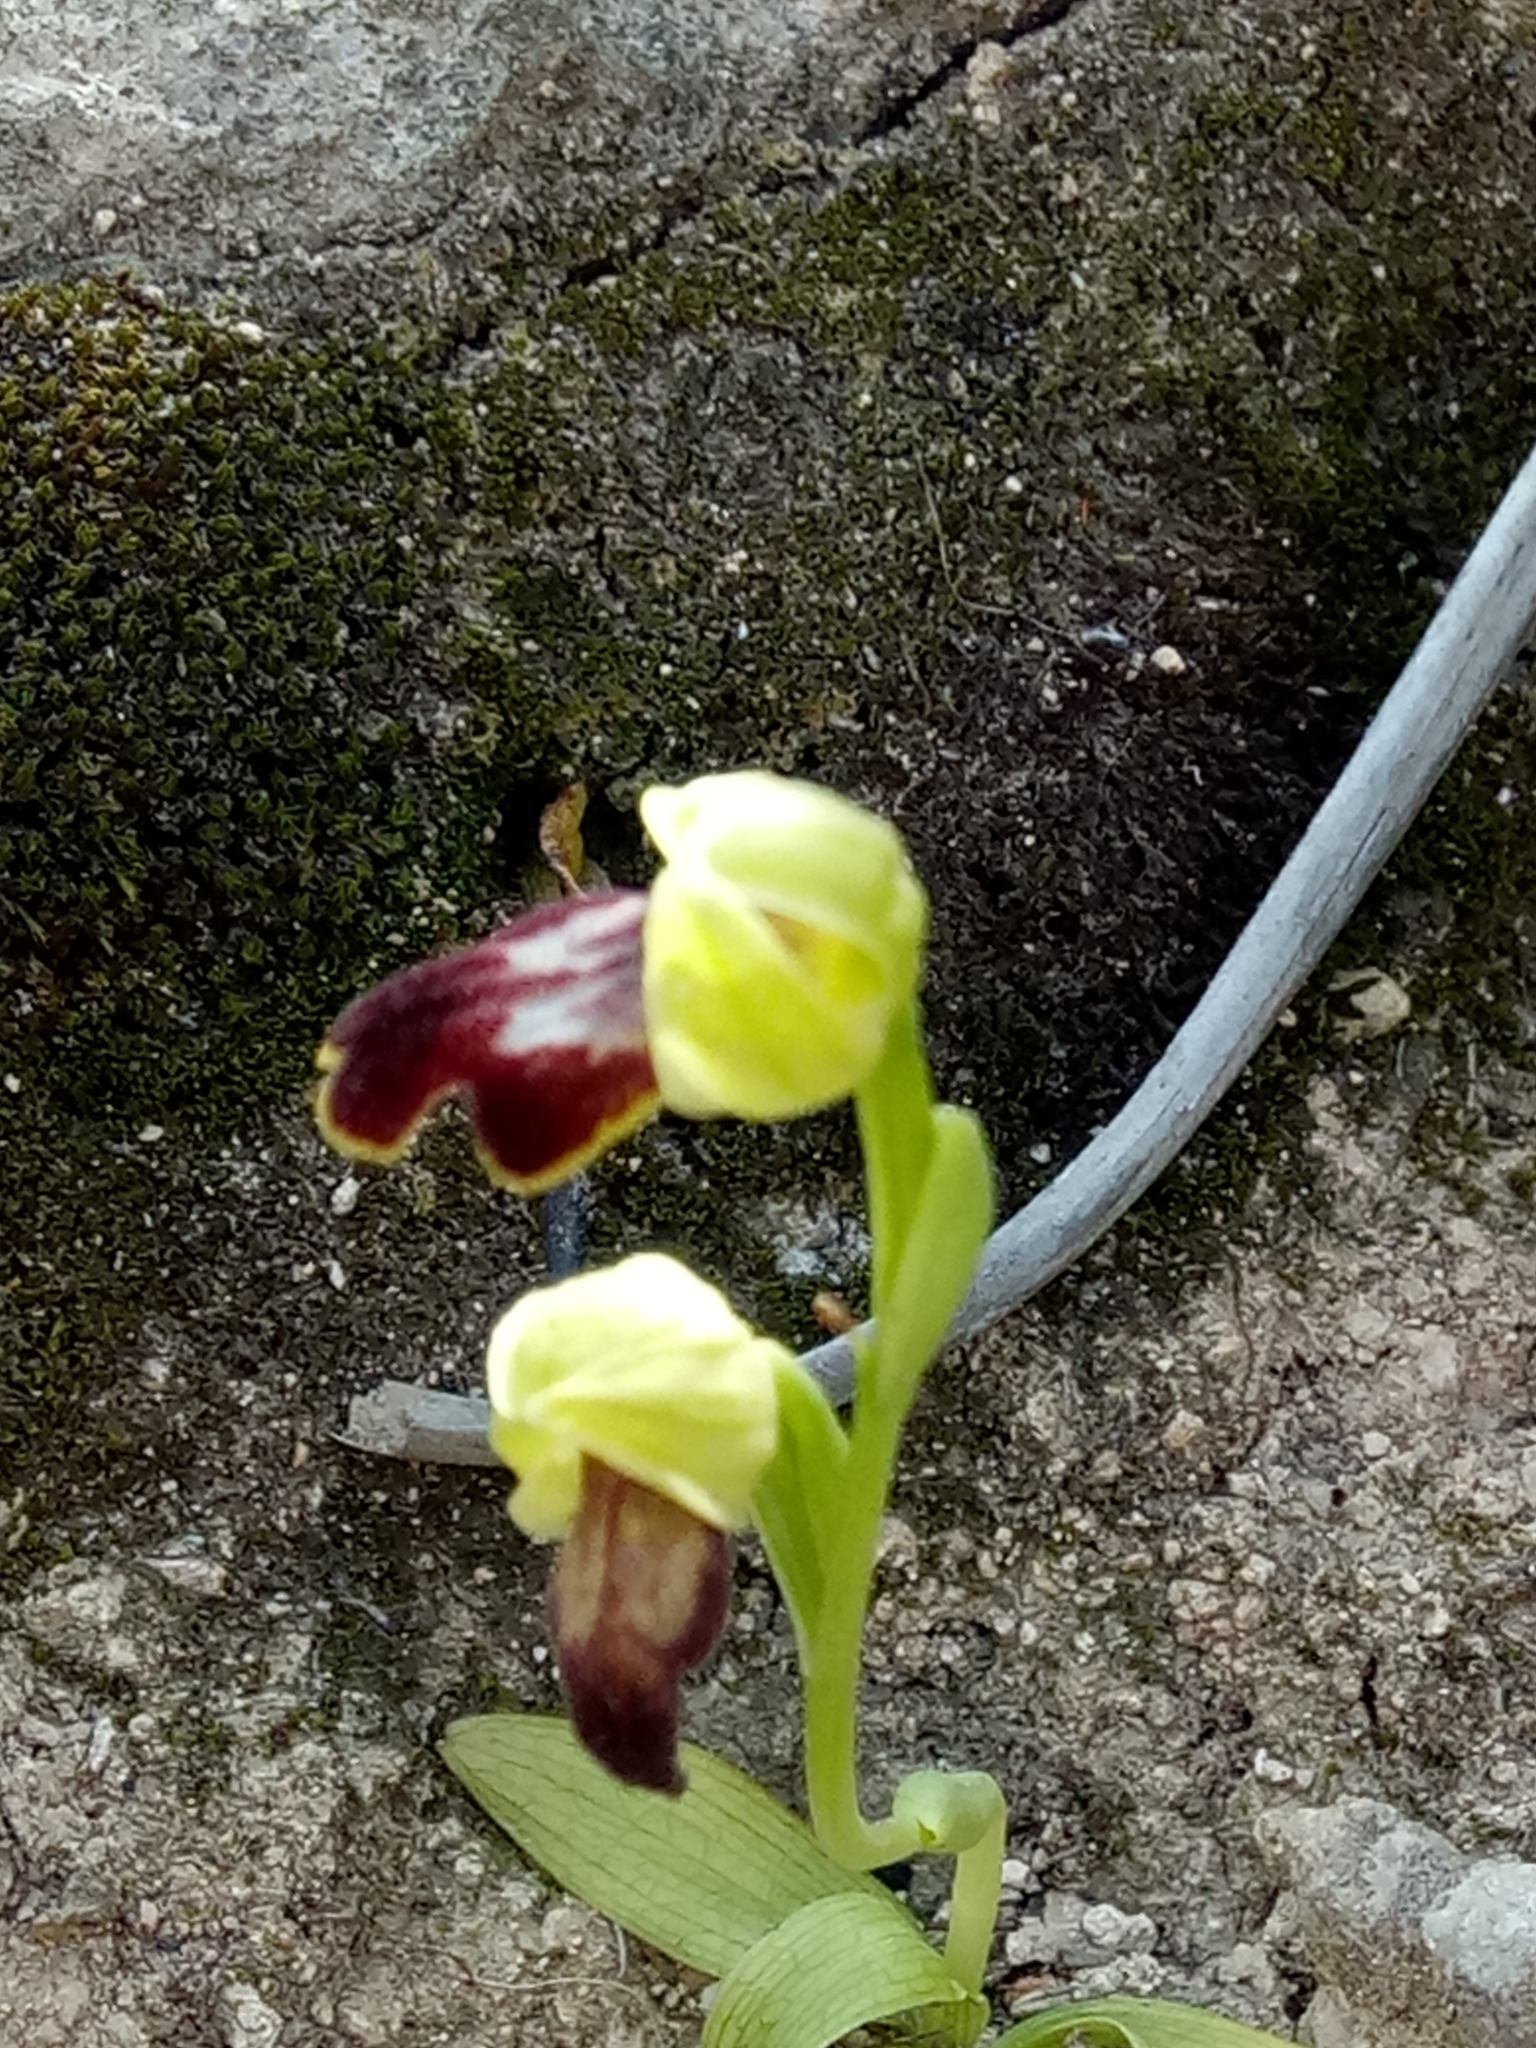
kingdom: Plantae
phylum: Tracheophyta
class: Liliopsida
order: Asparagales
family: Orchidaceae
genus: Ophrys
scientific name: Ophrys fusca
